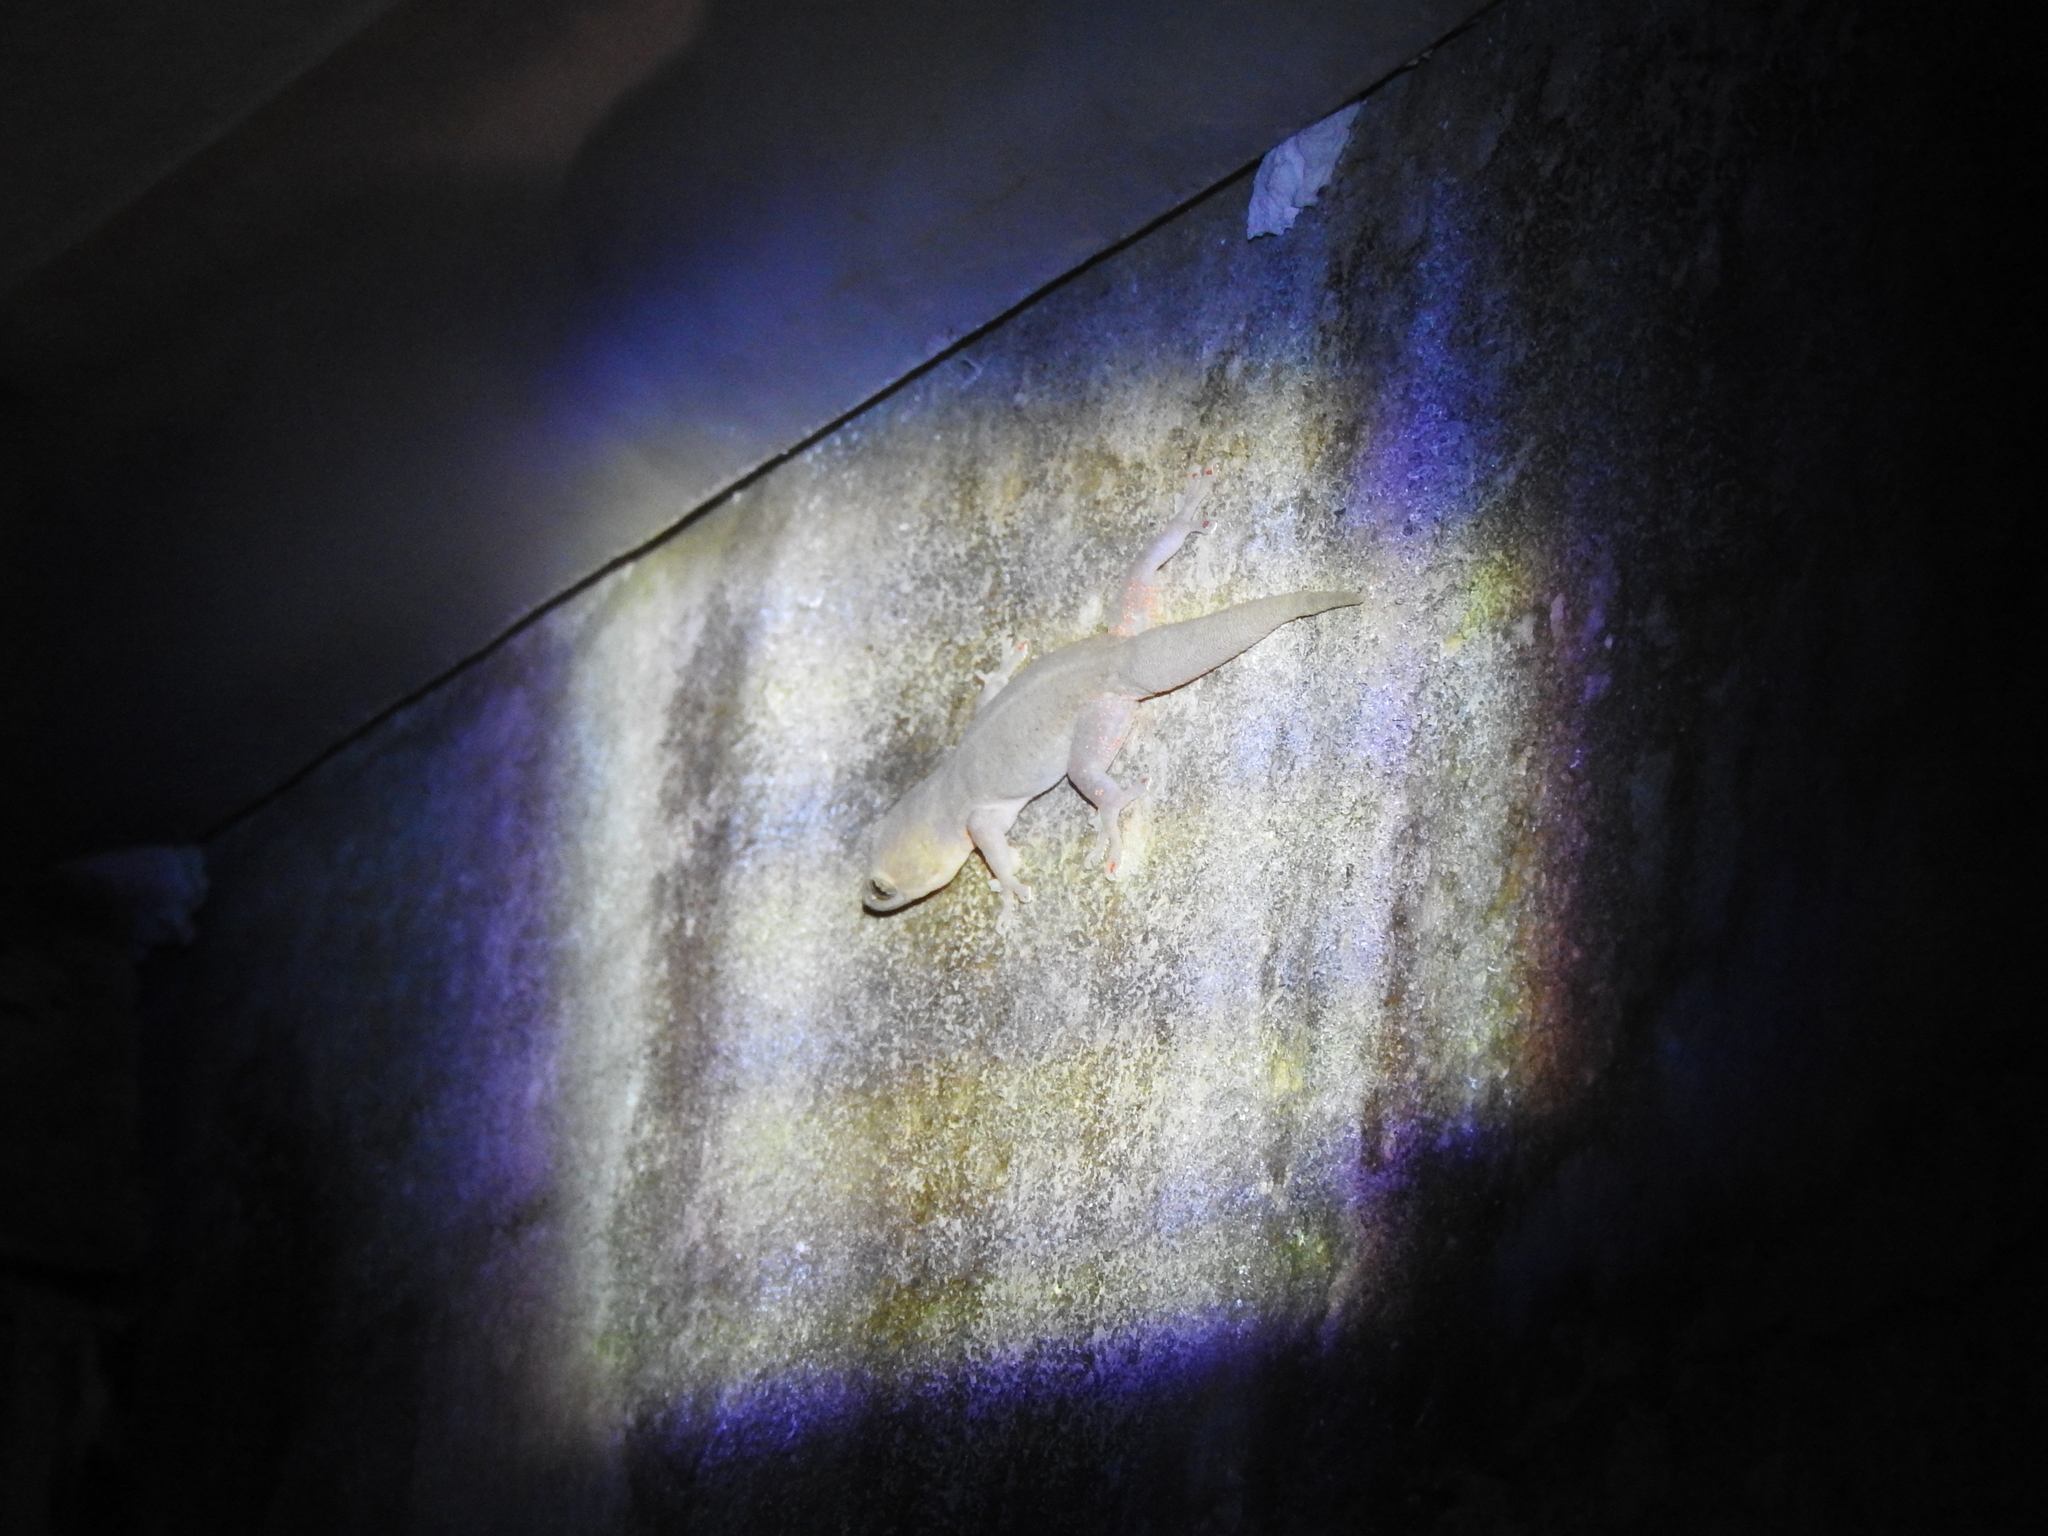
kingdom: Animalia
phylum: Chordata
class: Squamata
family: Gekkonidae
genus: Hemidactylus
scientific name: Hemidactylus frenatus
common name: Common house gecko
